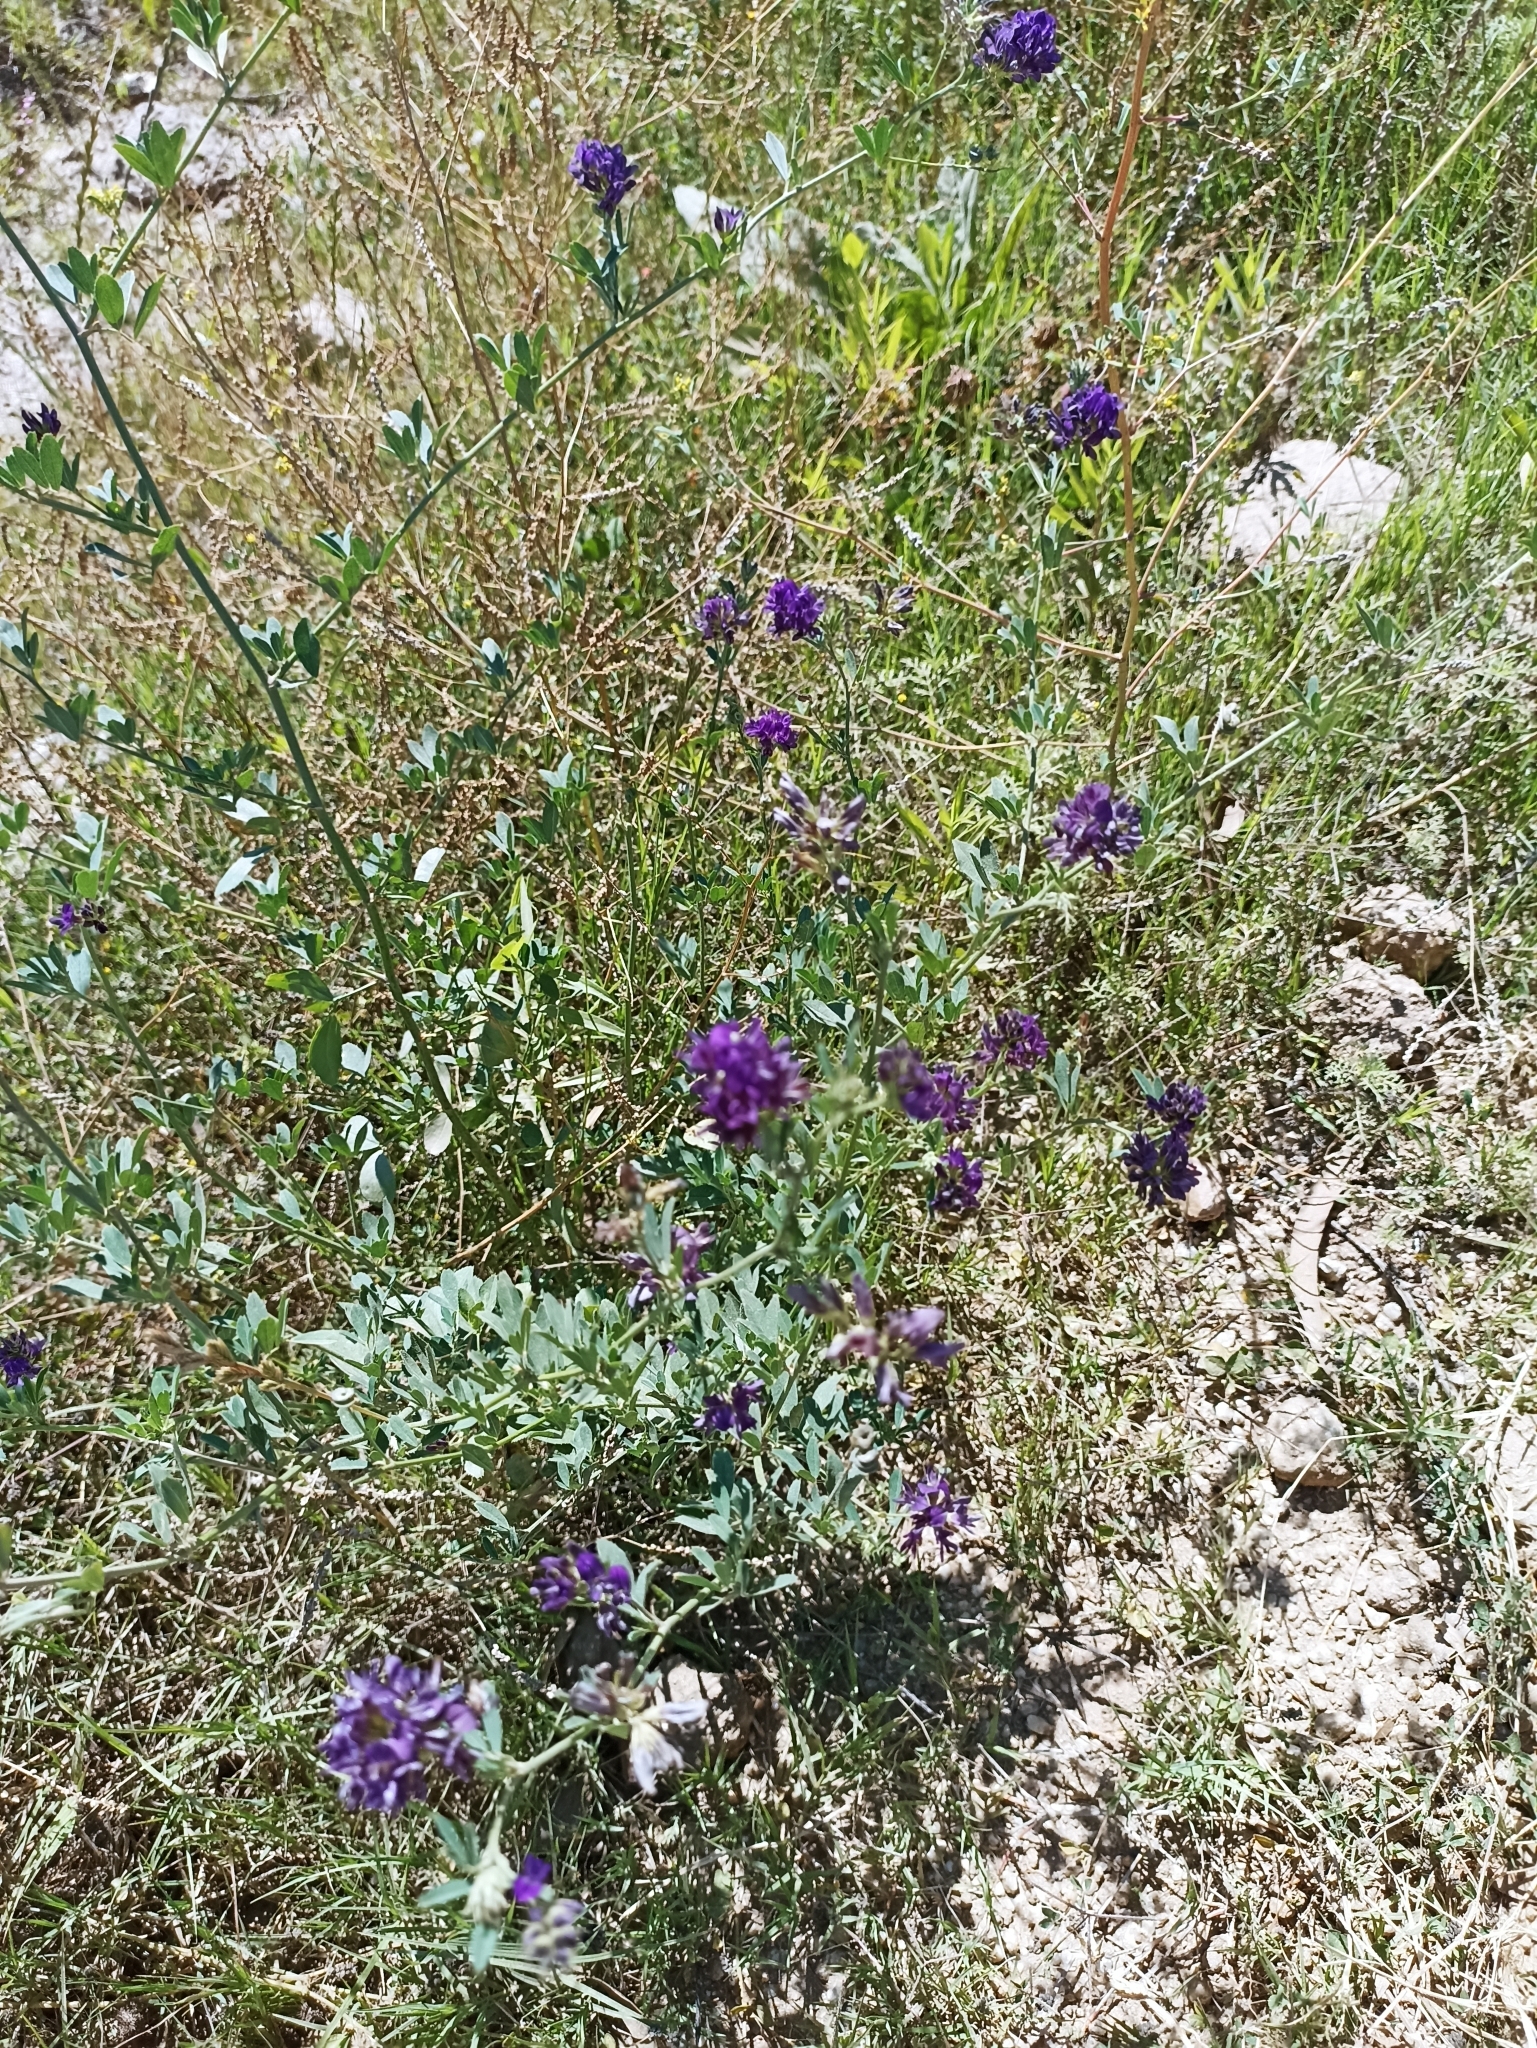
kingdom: Plantae
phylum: Tracheophyta
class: Magnoliopsida
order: Fabales
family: Fabaceae
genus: Medicago
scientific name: Medicago sativa
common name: Alfalfa
